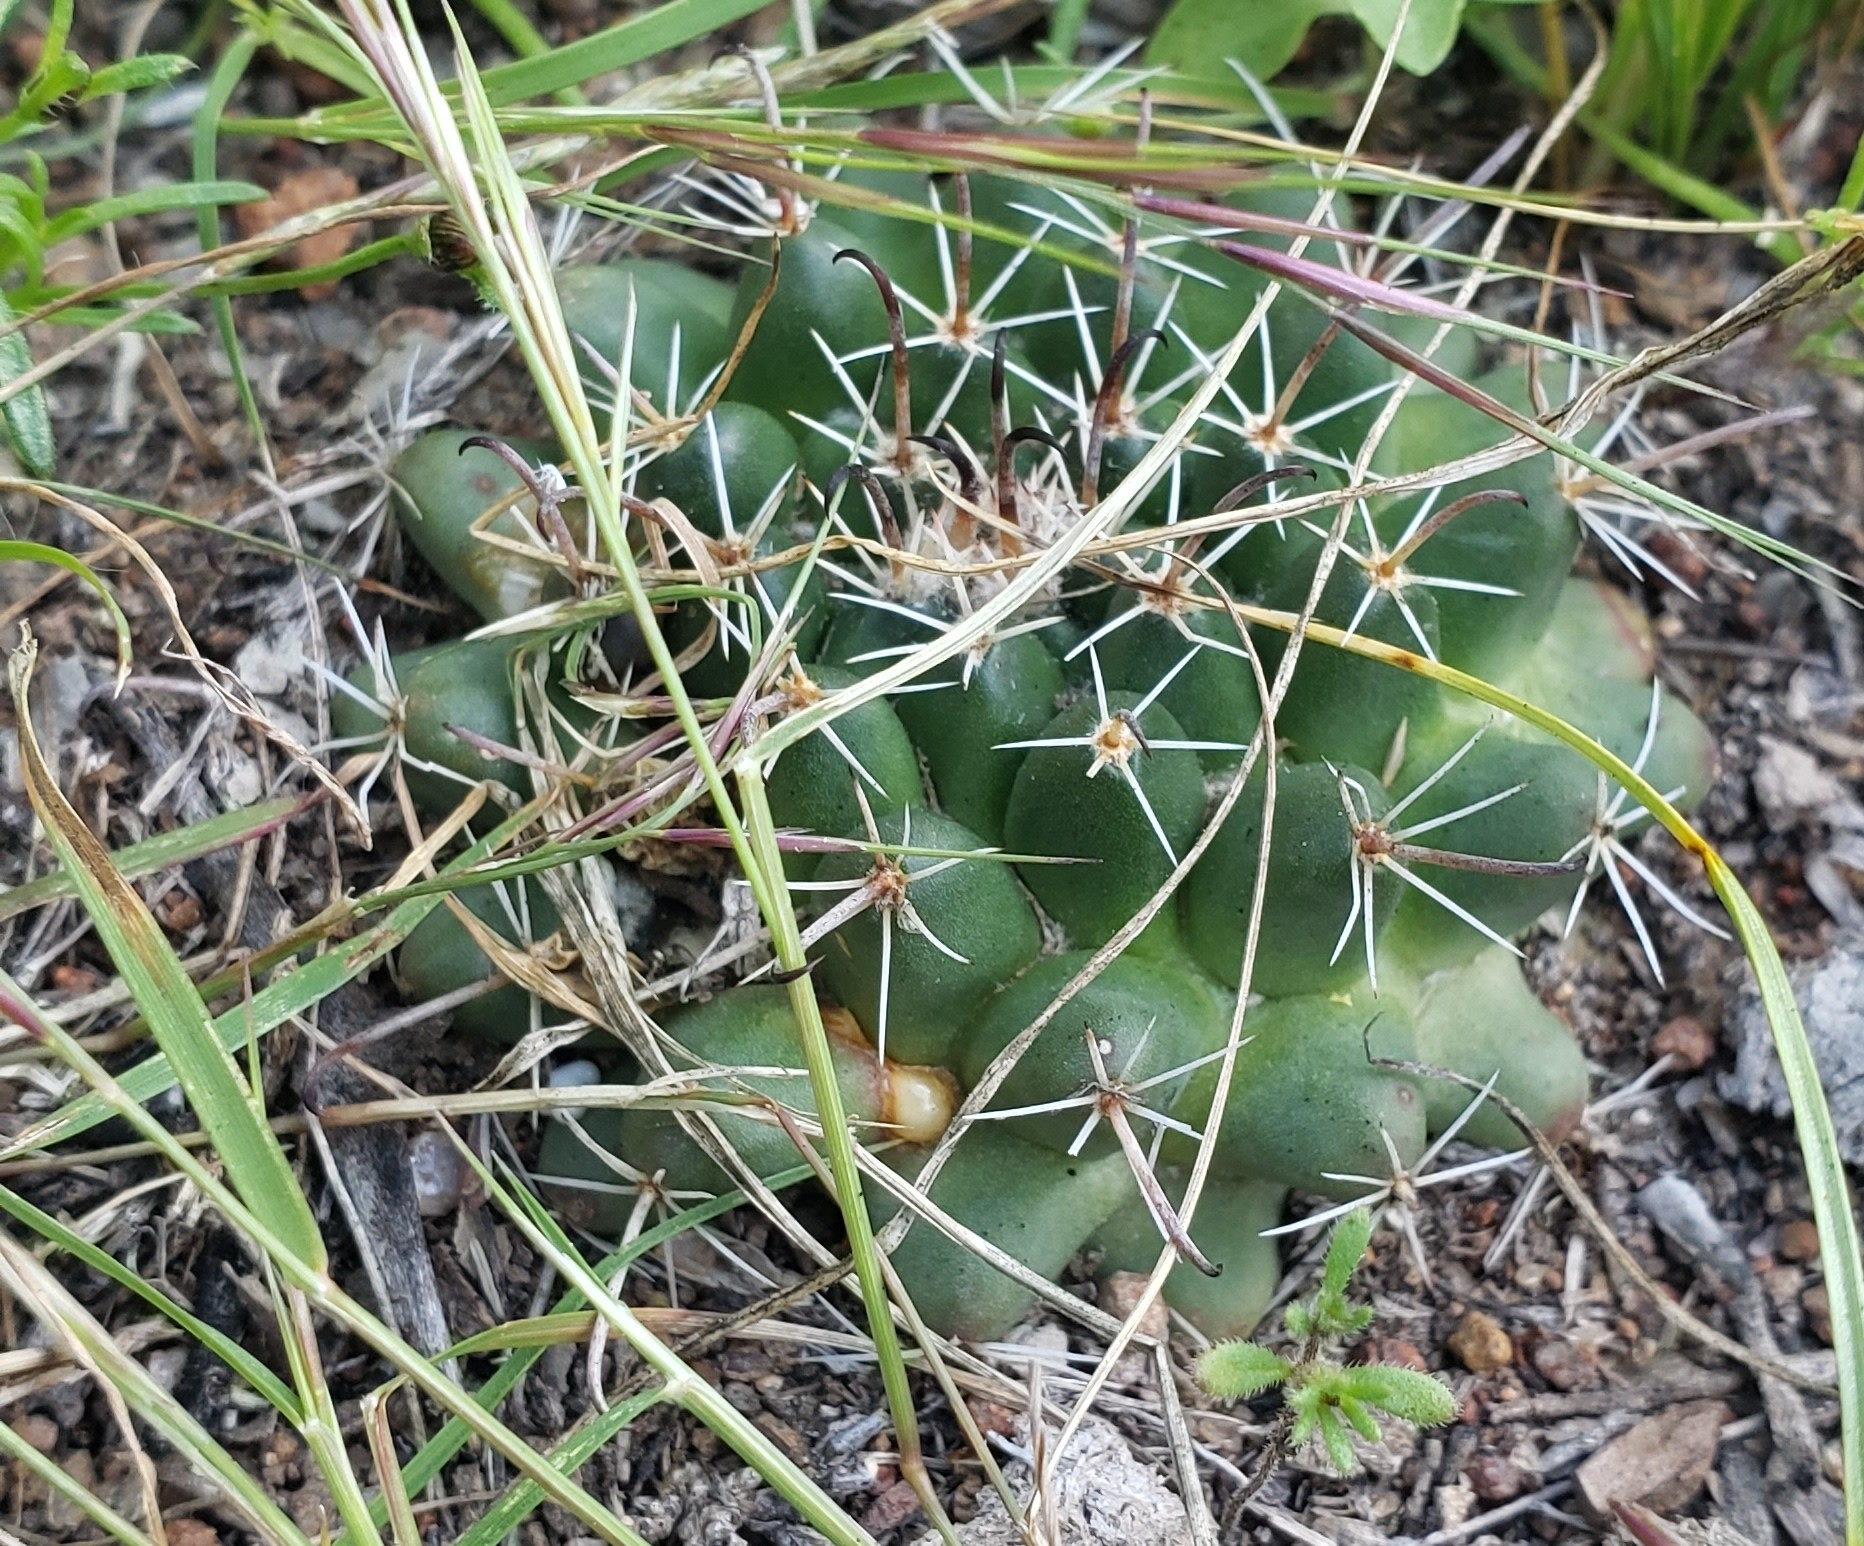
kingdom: Plantae
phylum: Tracheophyta
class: Magnoliopsida
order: Caryophyllales
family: Cactaceae
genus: Mammillaria
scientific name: Mammillaria uncinata
